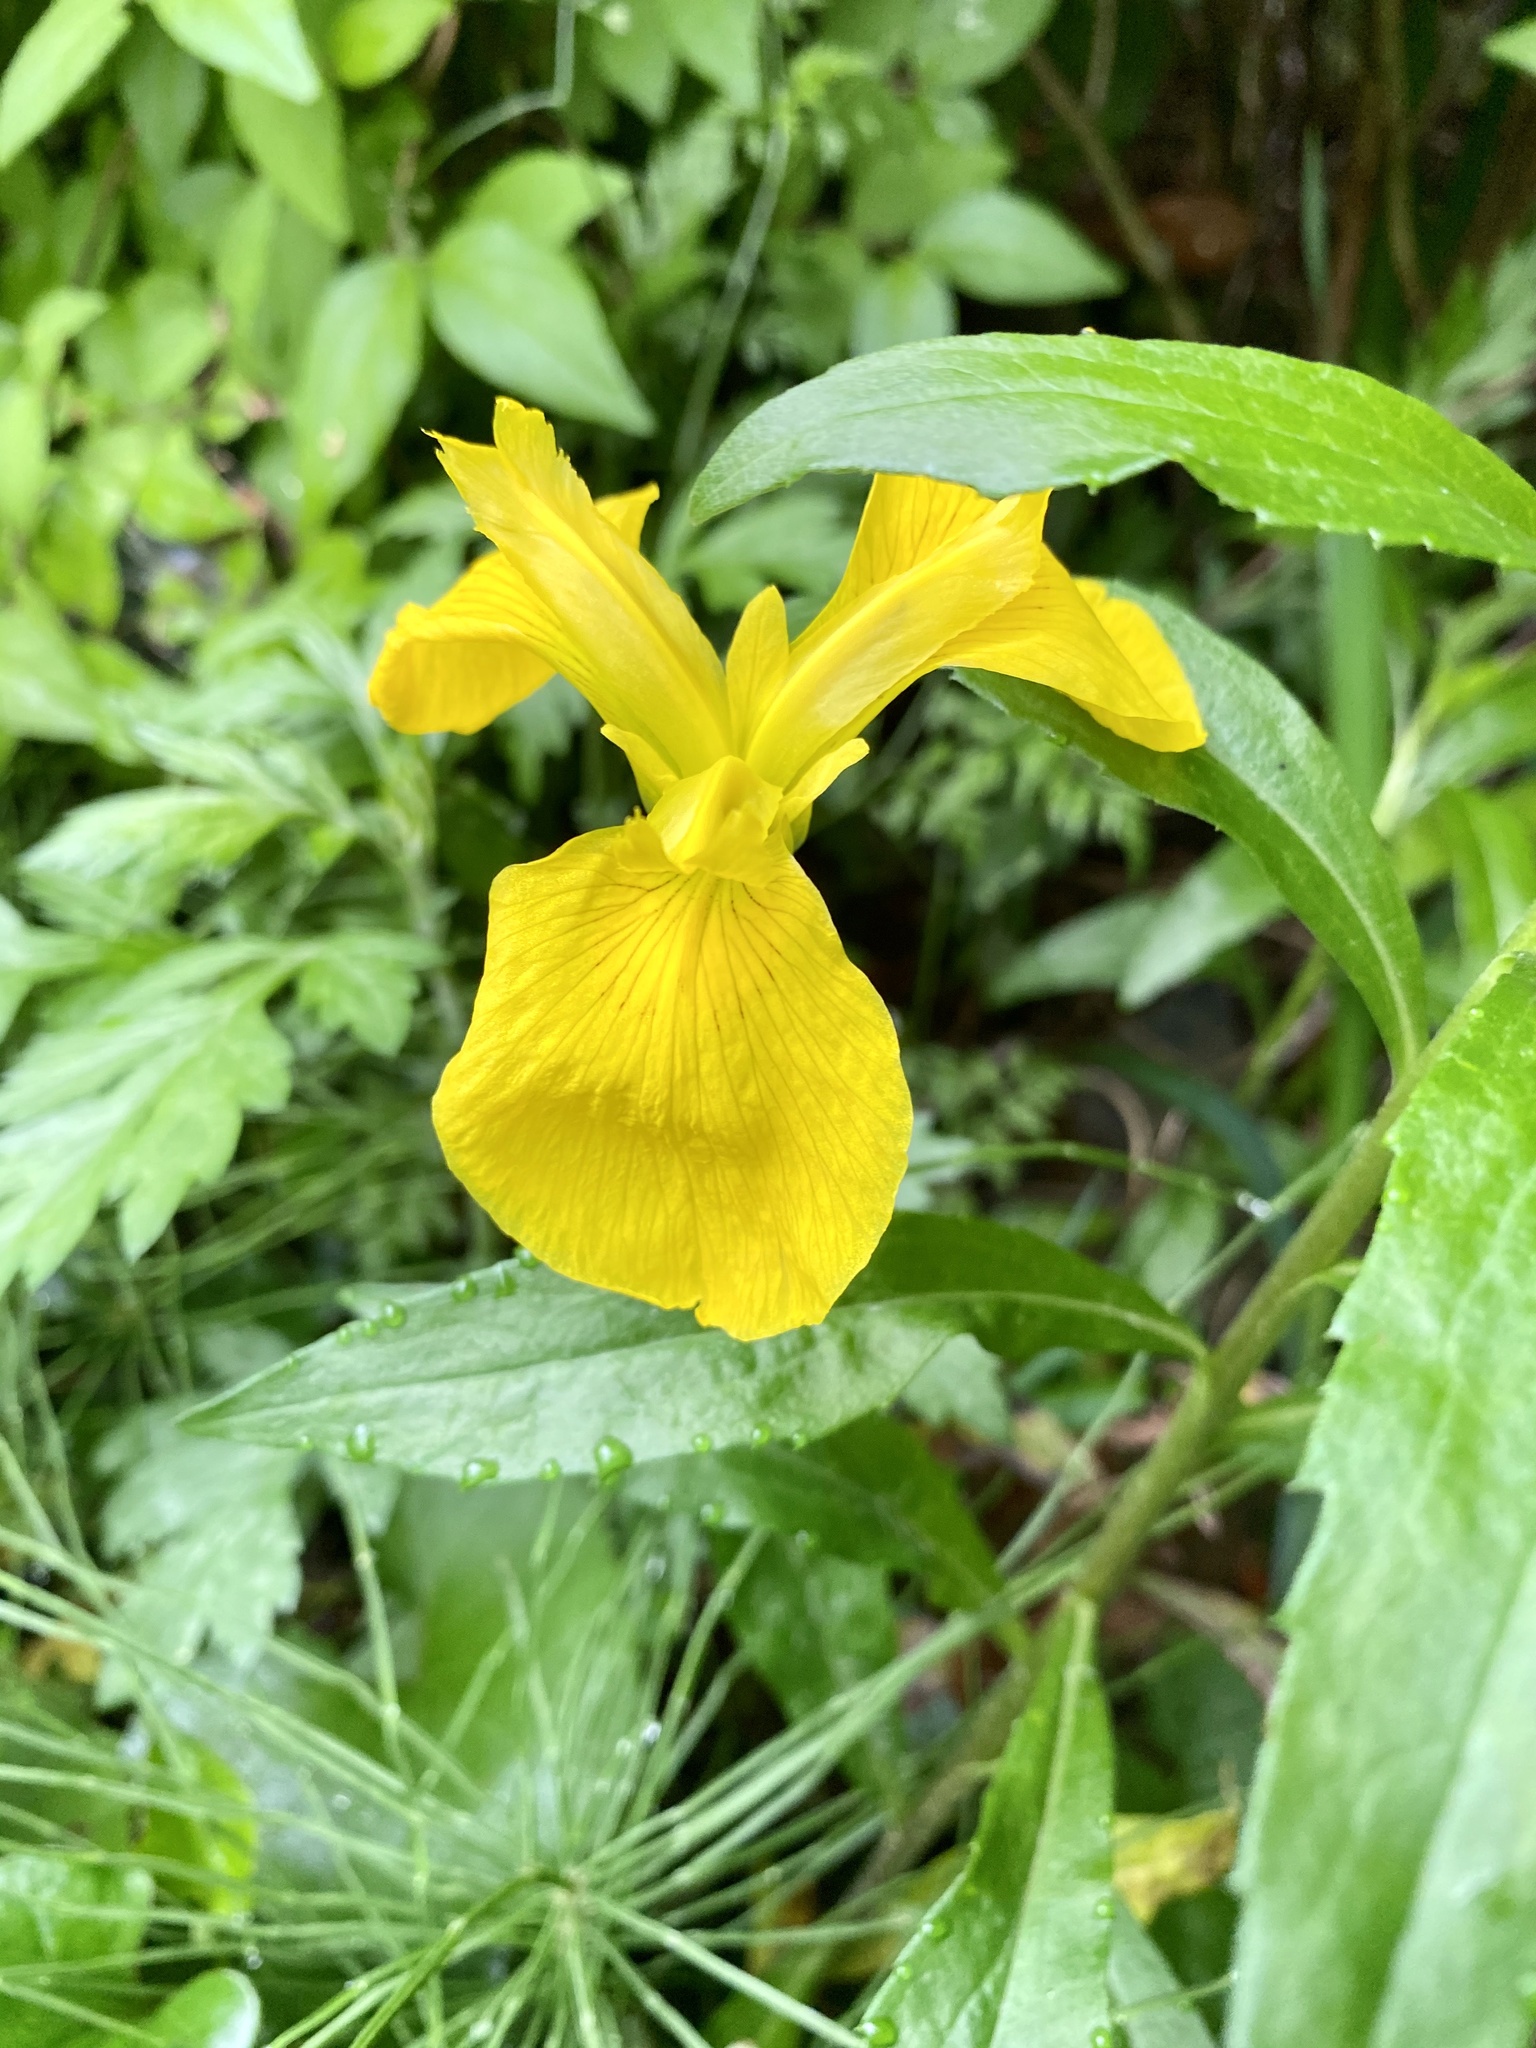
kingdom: Plantae
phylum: Tracheophyta
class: Liliopsida
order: Asparagales
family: Iridaceae
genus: Iris
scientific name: Iris pseudacorus
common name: Yellow flag
